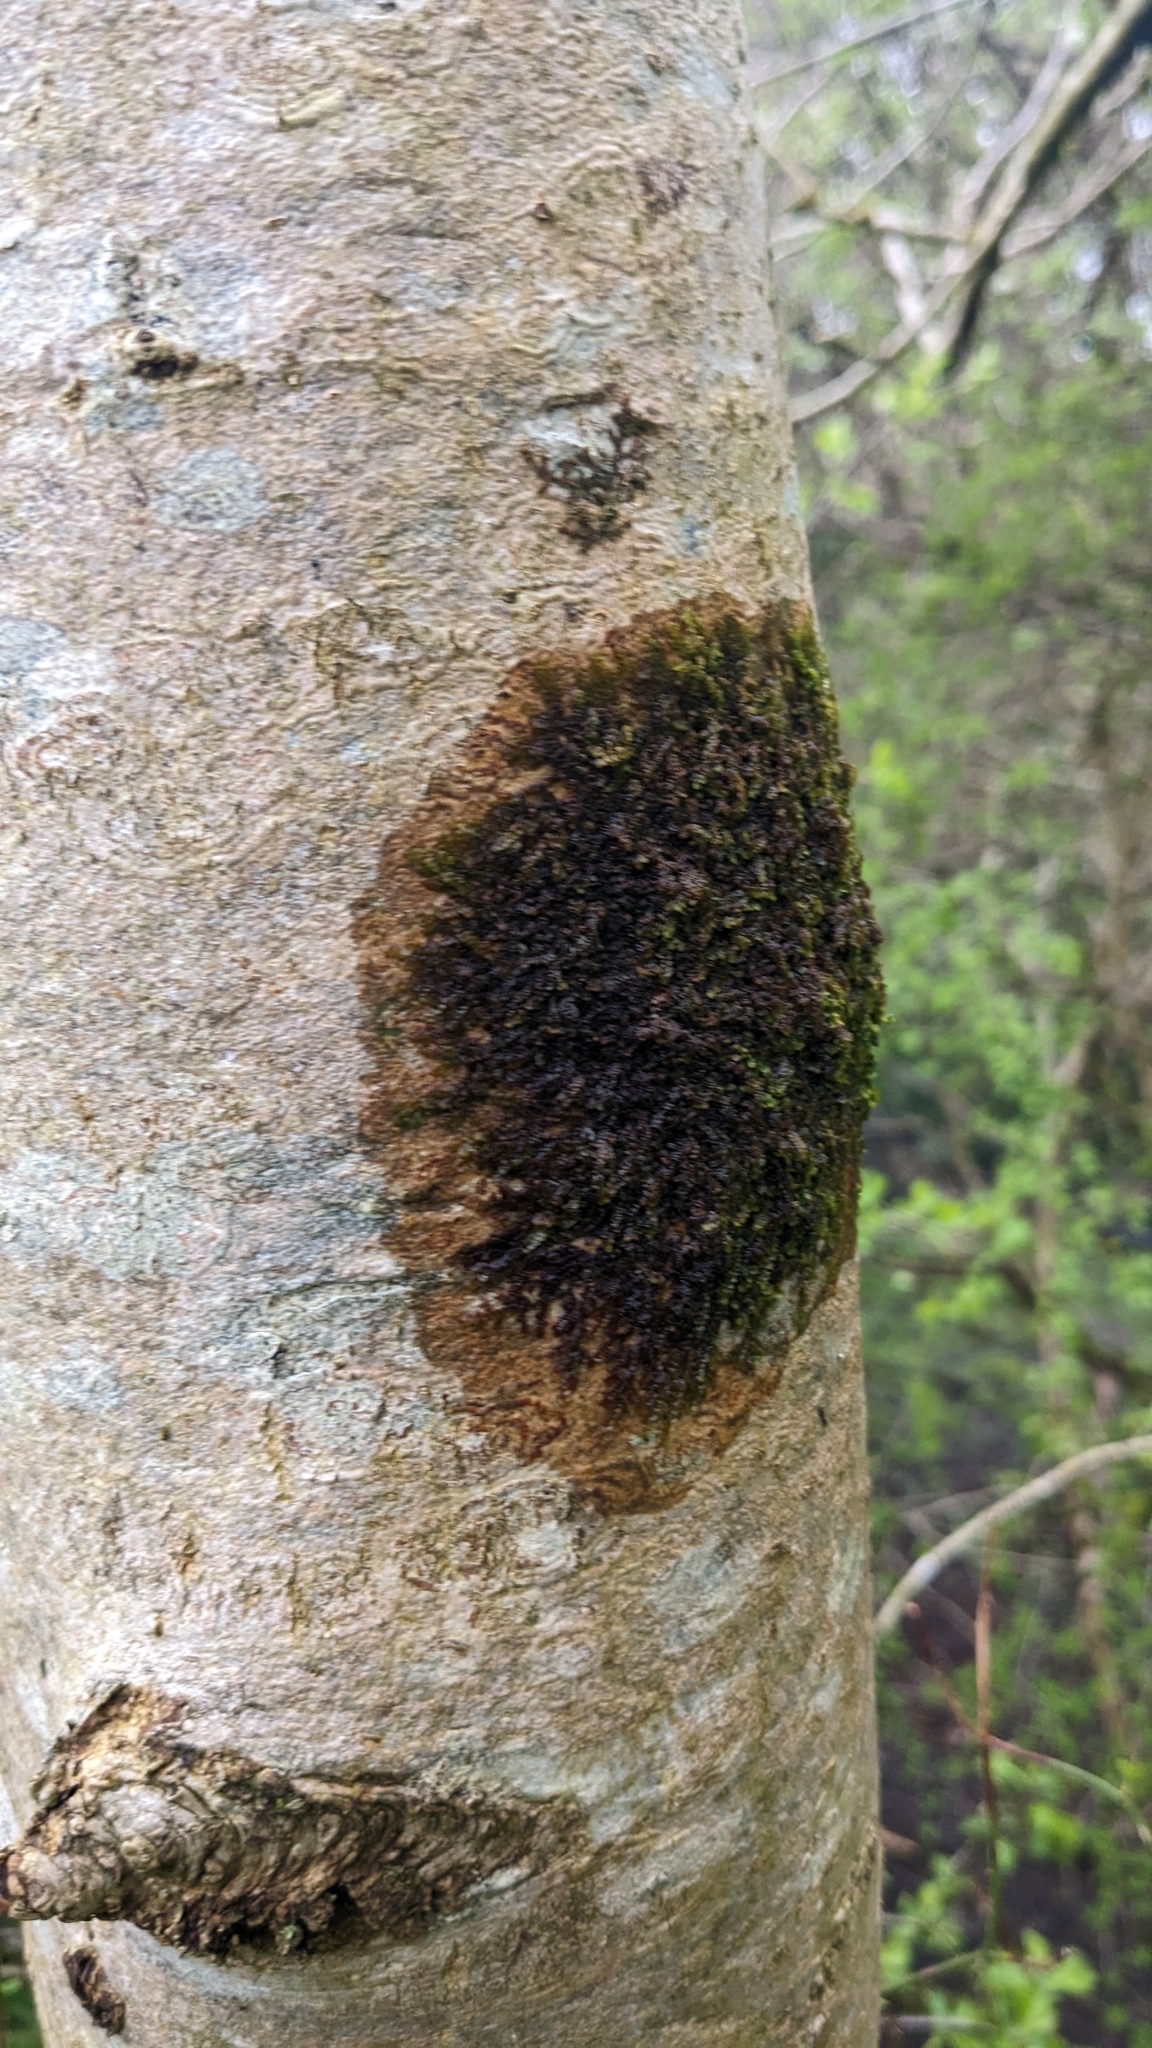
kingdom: Plantae
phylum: Marchantiophyta
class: Jungermanniopsida
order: Porellales
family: Frullaniaceae
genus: Frullania
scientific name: Frullania dilatata
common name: Dilated scalewort
